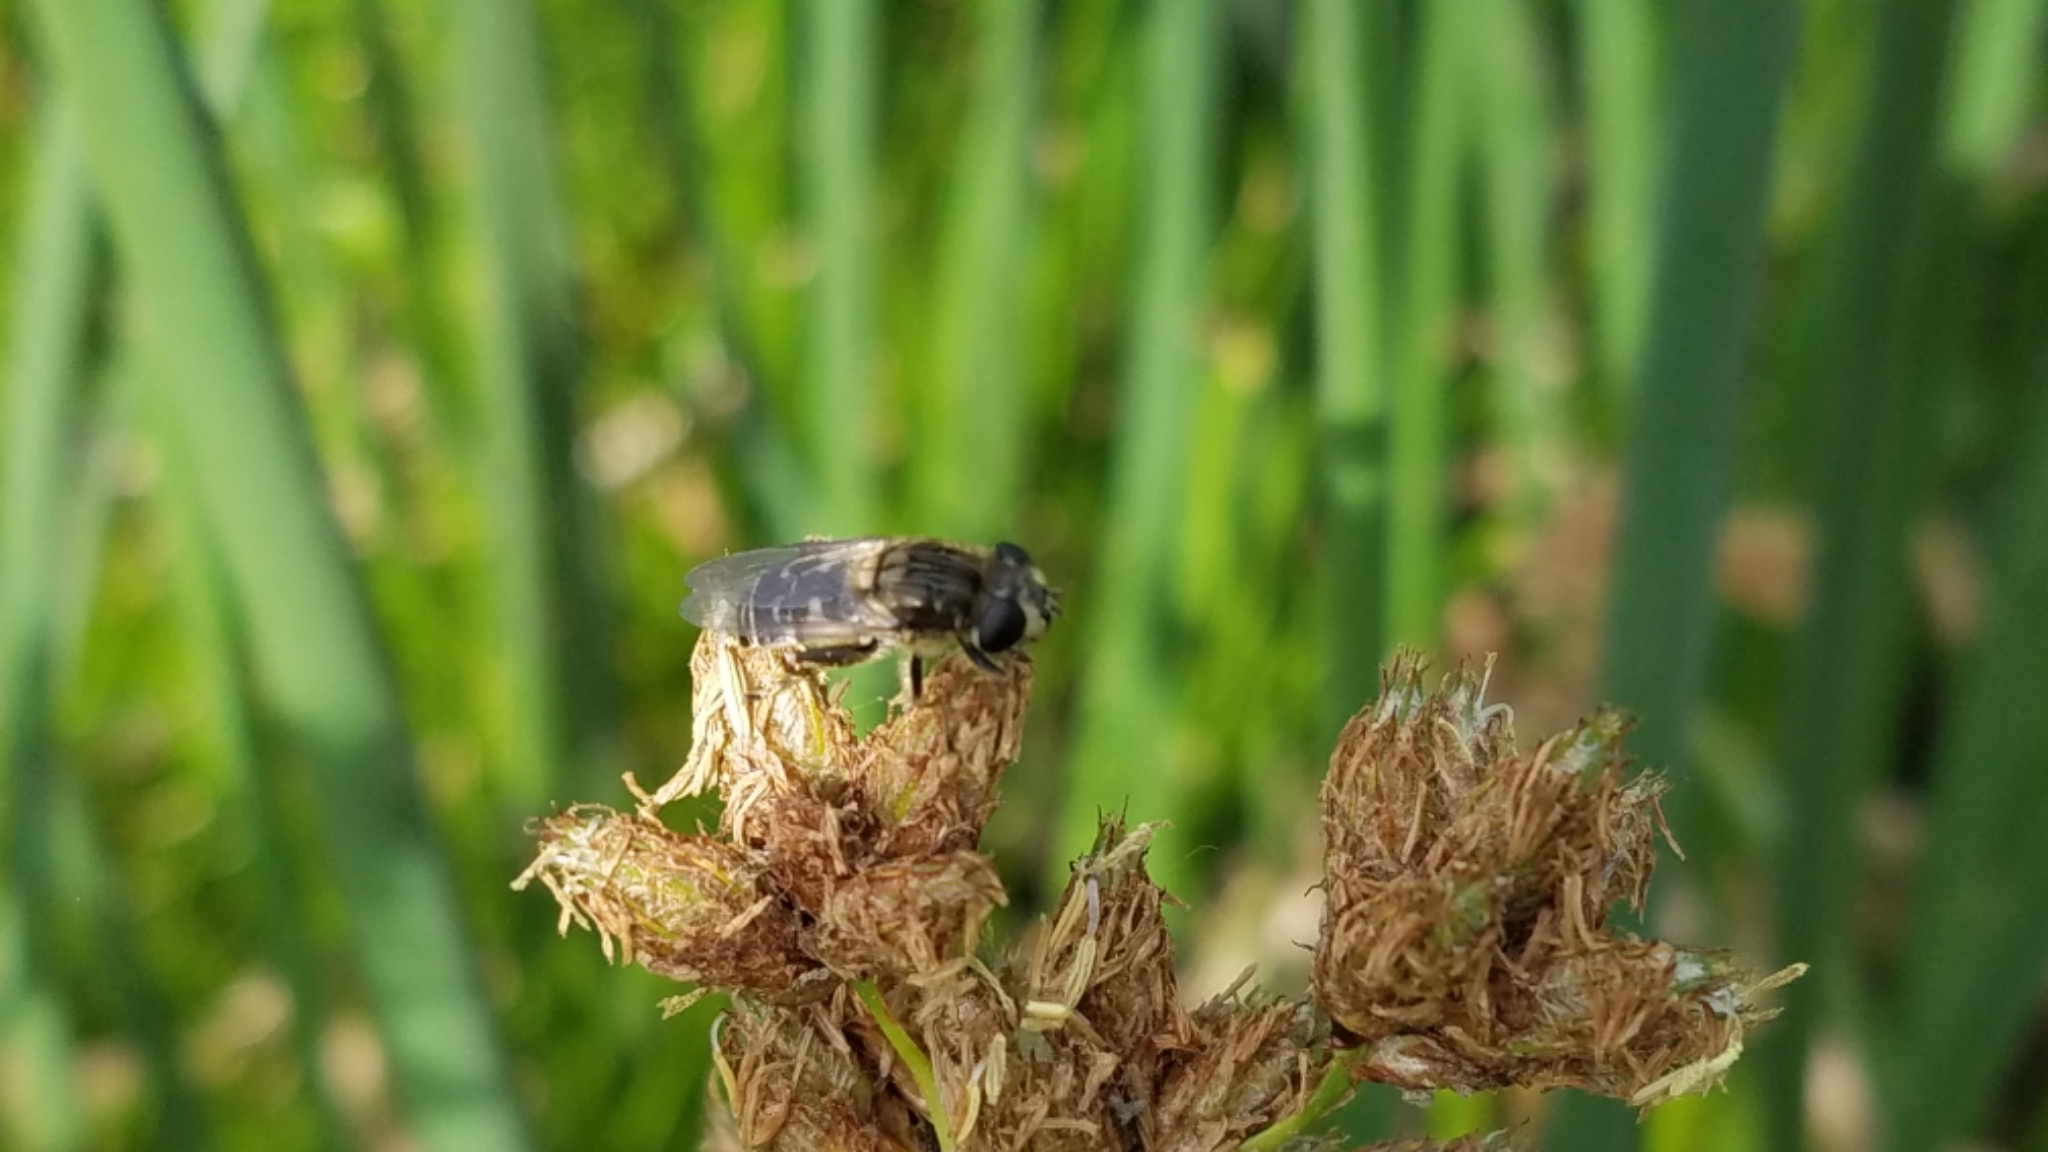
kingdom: Animalia
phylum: Arthropoda
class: Insecta
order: Diptera
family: Syrphidae
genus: Asemosyrphus
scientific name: Asemosyrphus polygrammus
